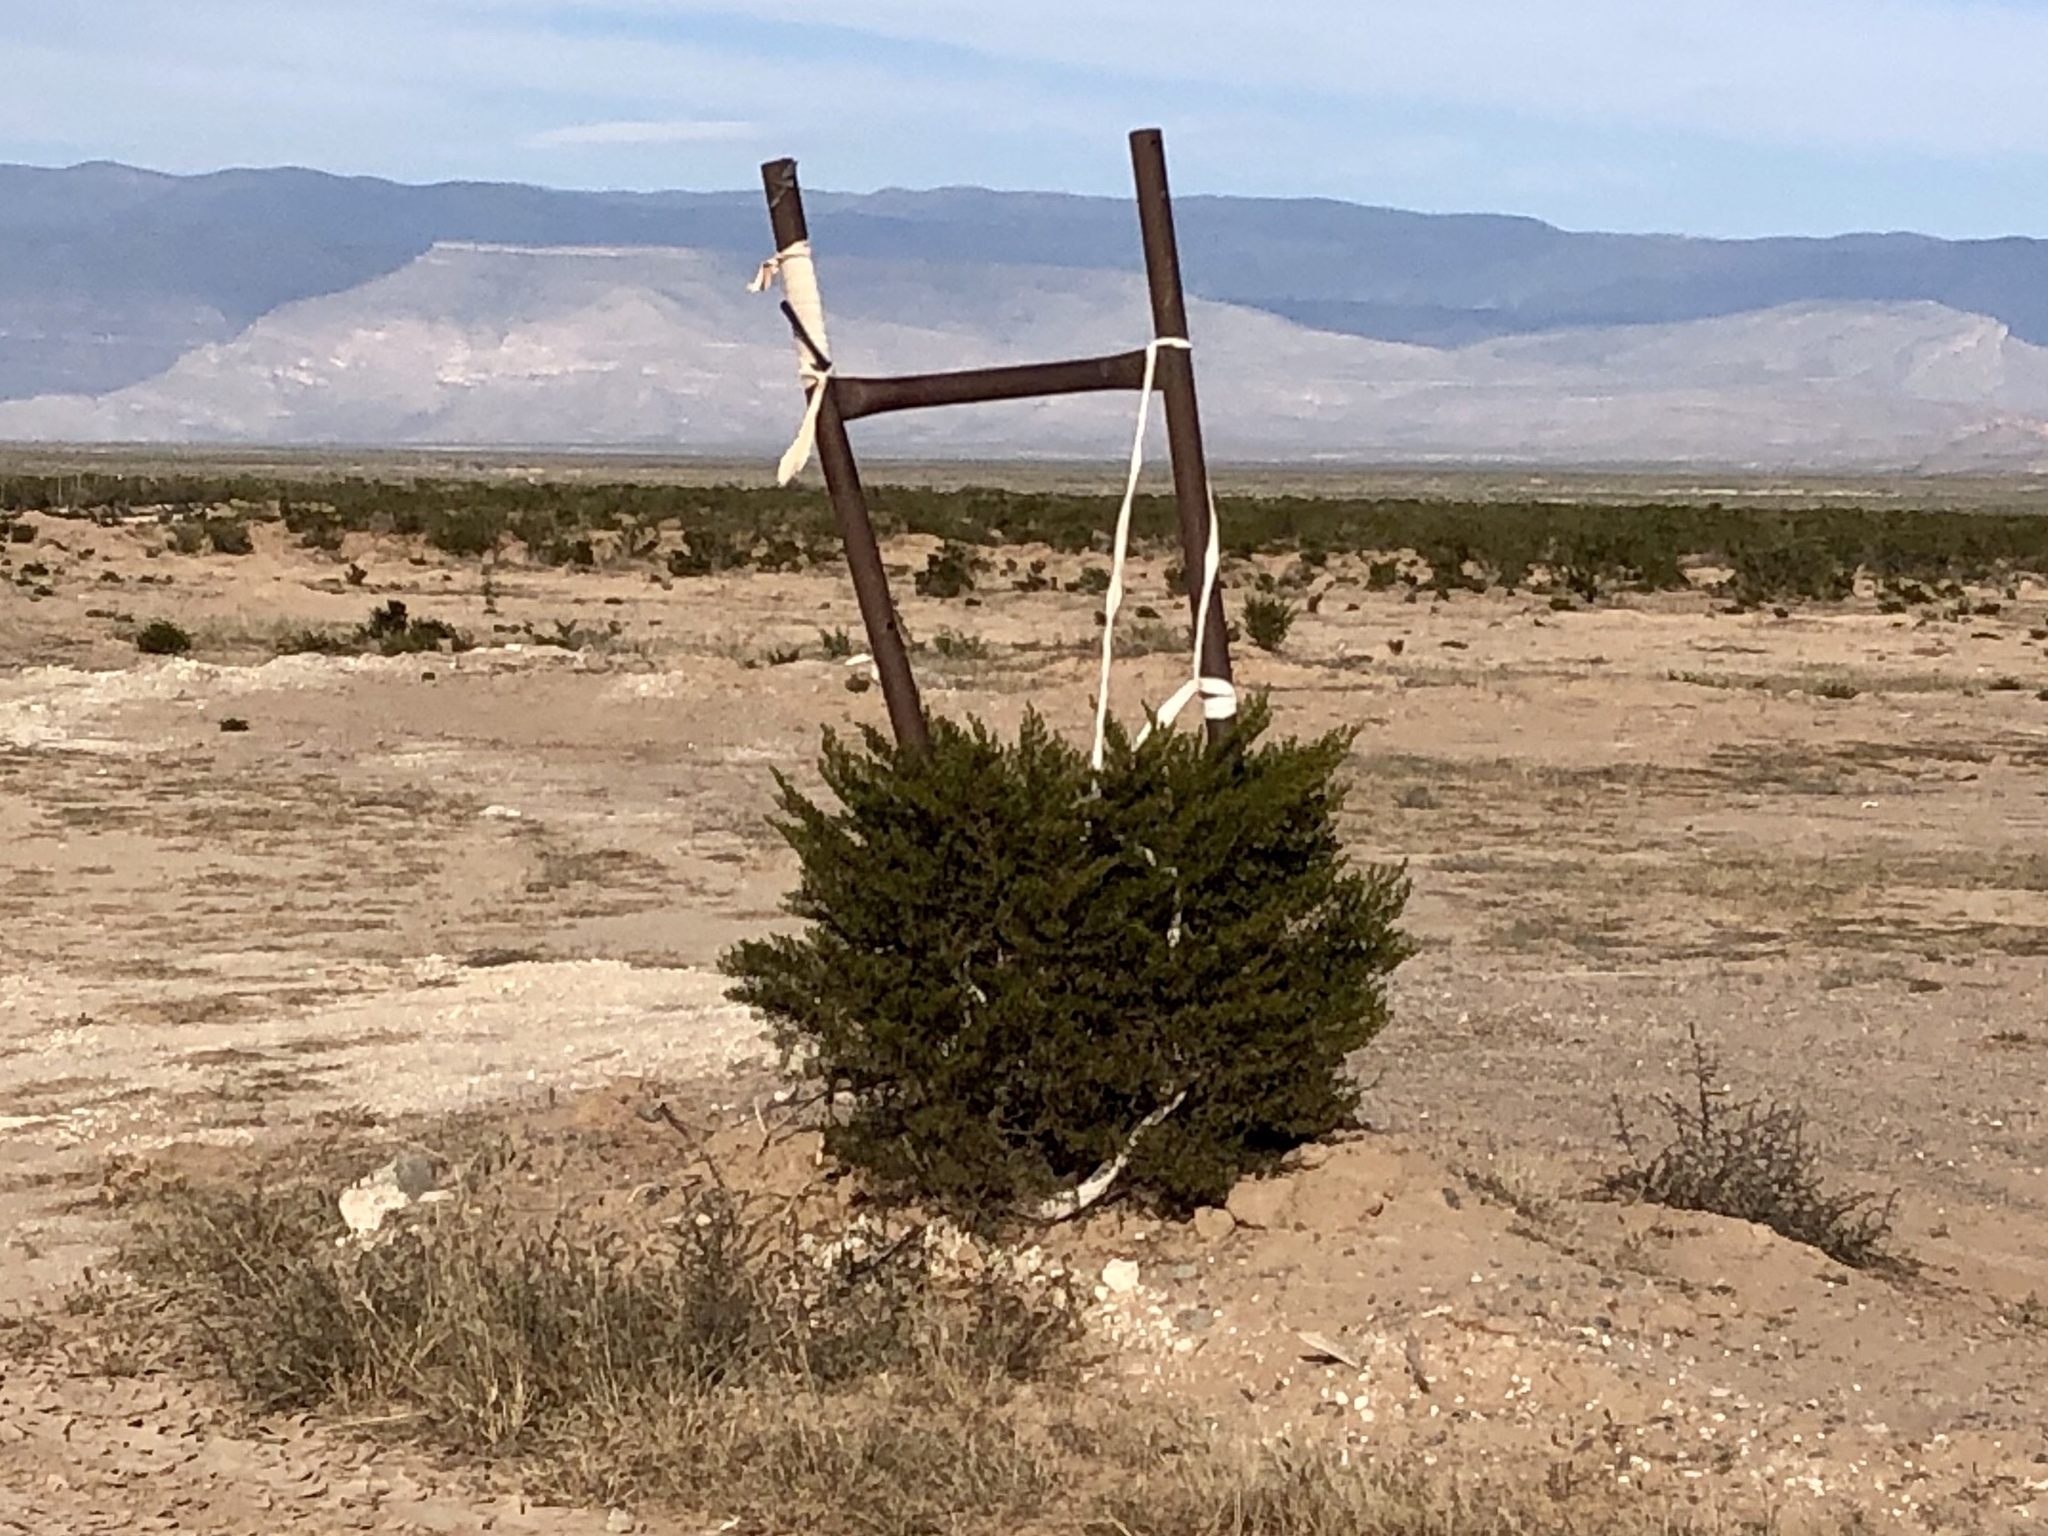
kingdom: Plantae
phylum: Tracheophyta
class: Magnoliopsida
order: Zygophyllales
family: Zygophyllaceae
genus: Larrea
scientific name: Larrea tridentata
